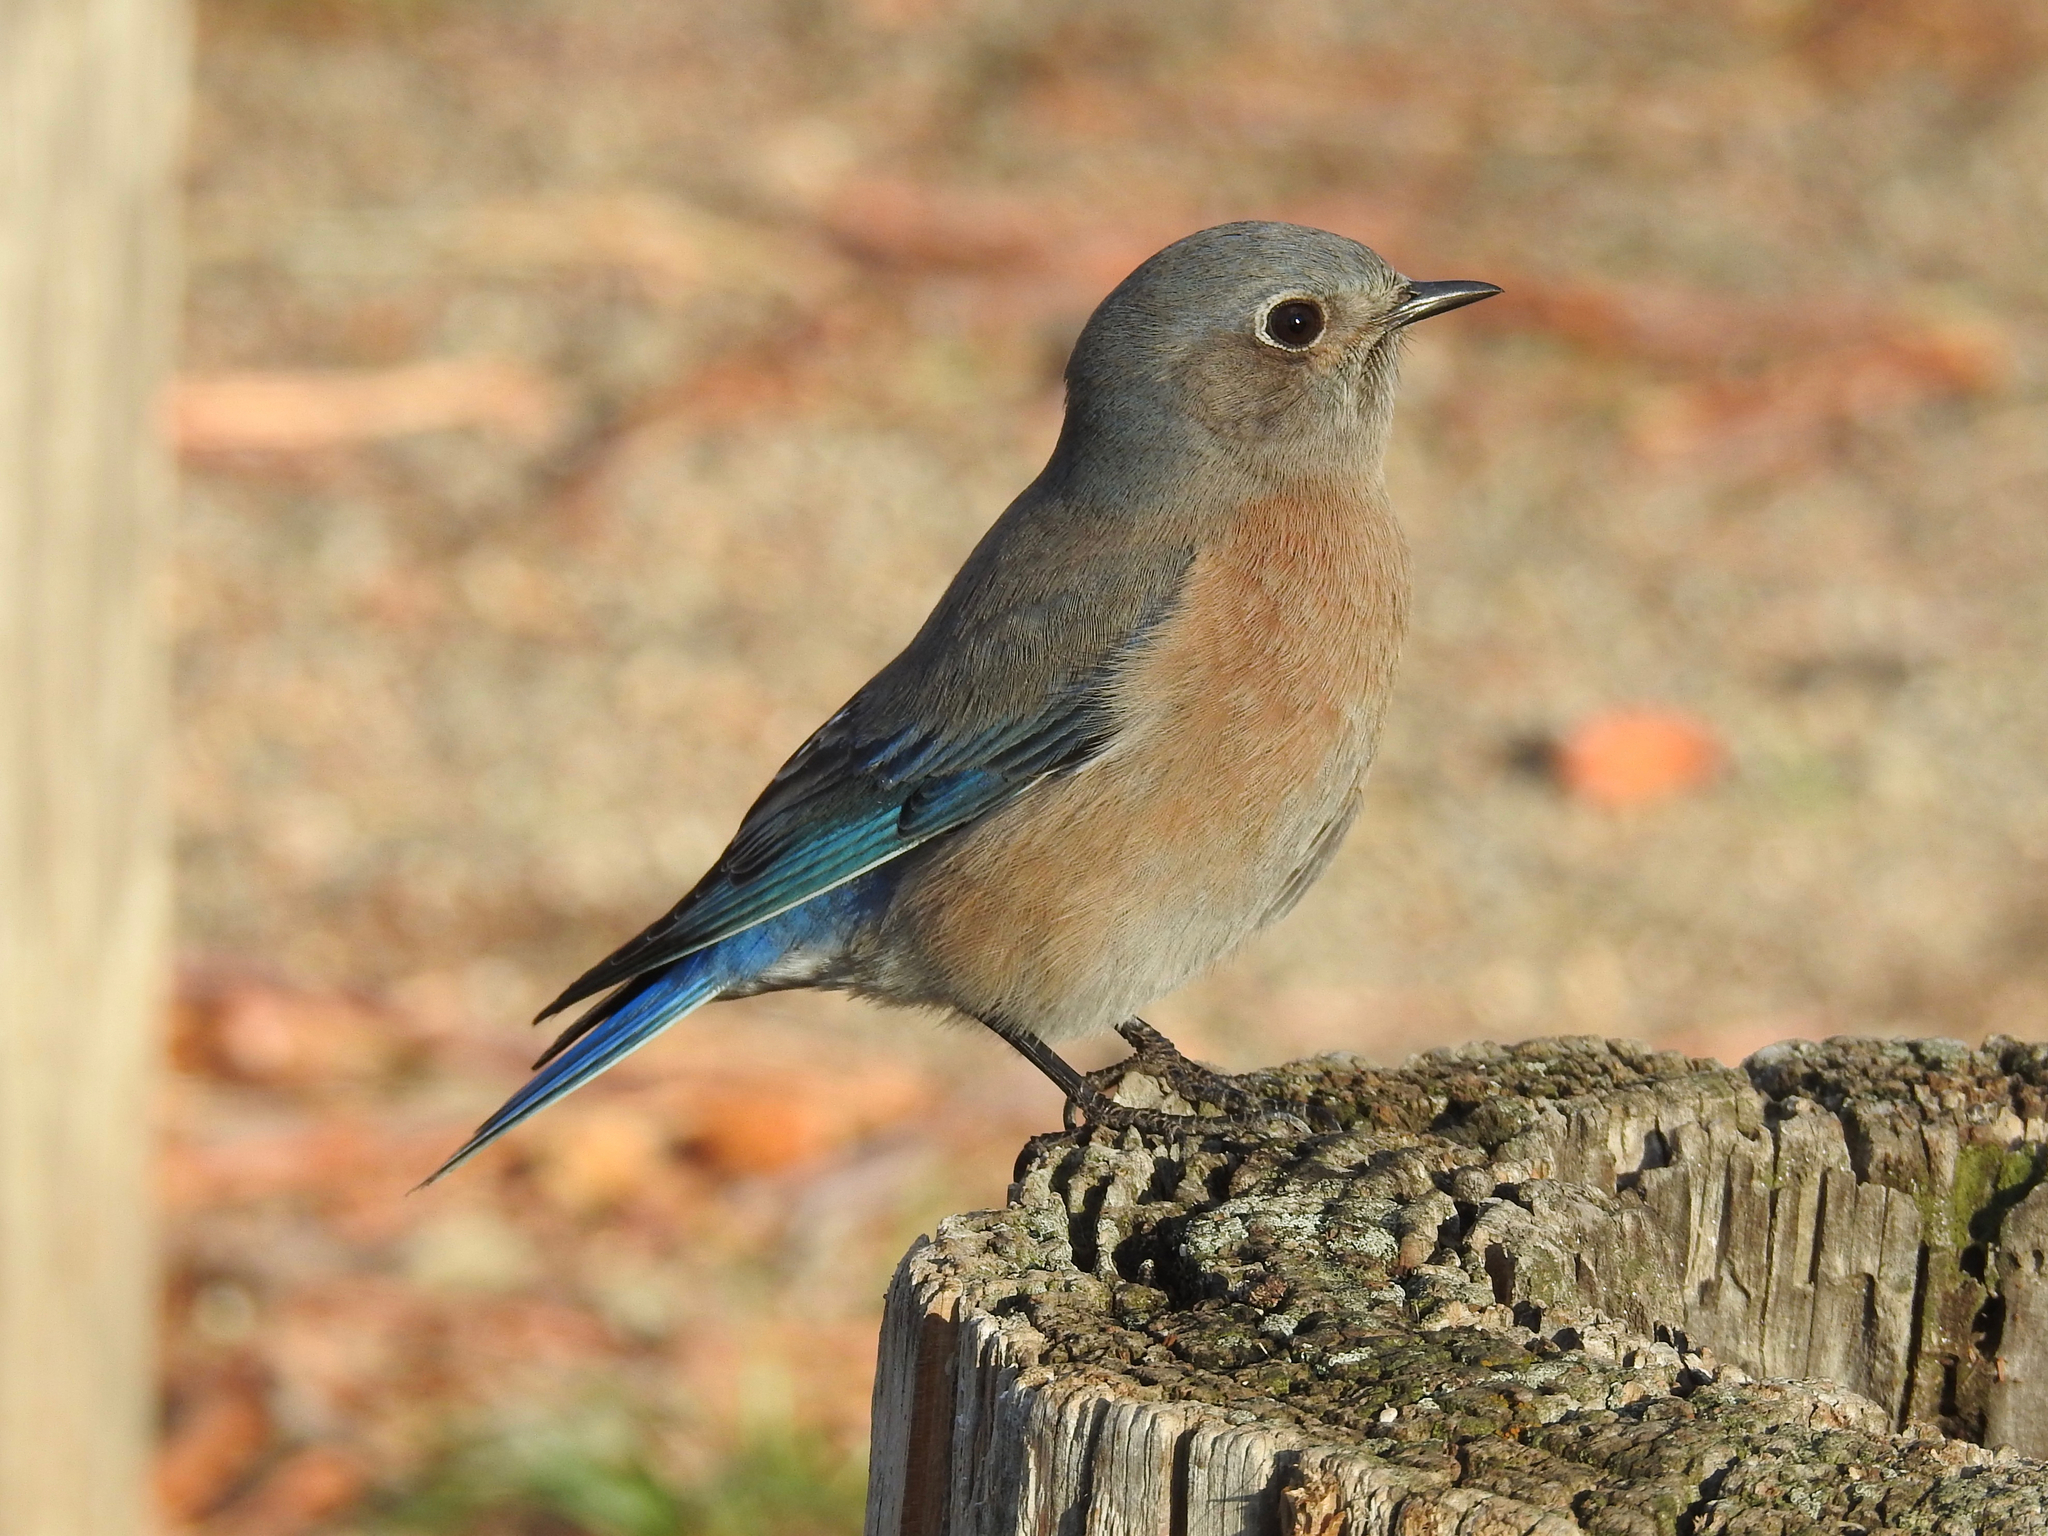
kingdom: Animalia
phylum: Chordata
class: Aves
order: Passeriformes
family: Turdidae
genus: Sialia
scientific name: Sialia mexicana
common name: Western bluebird
